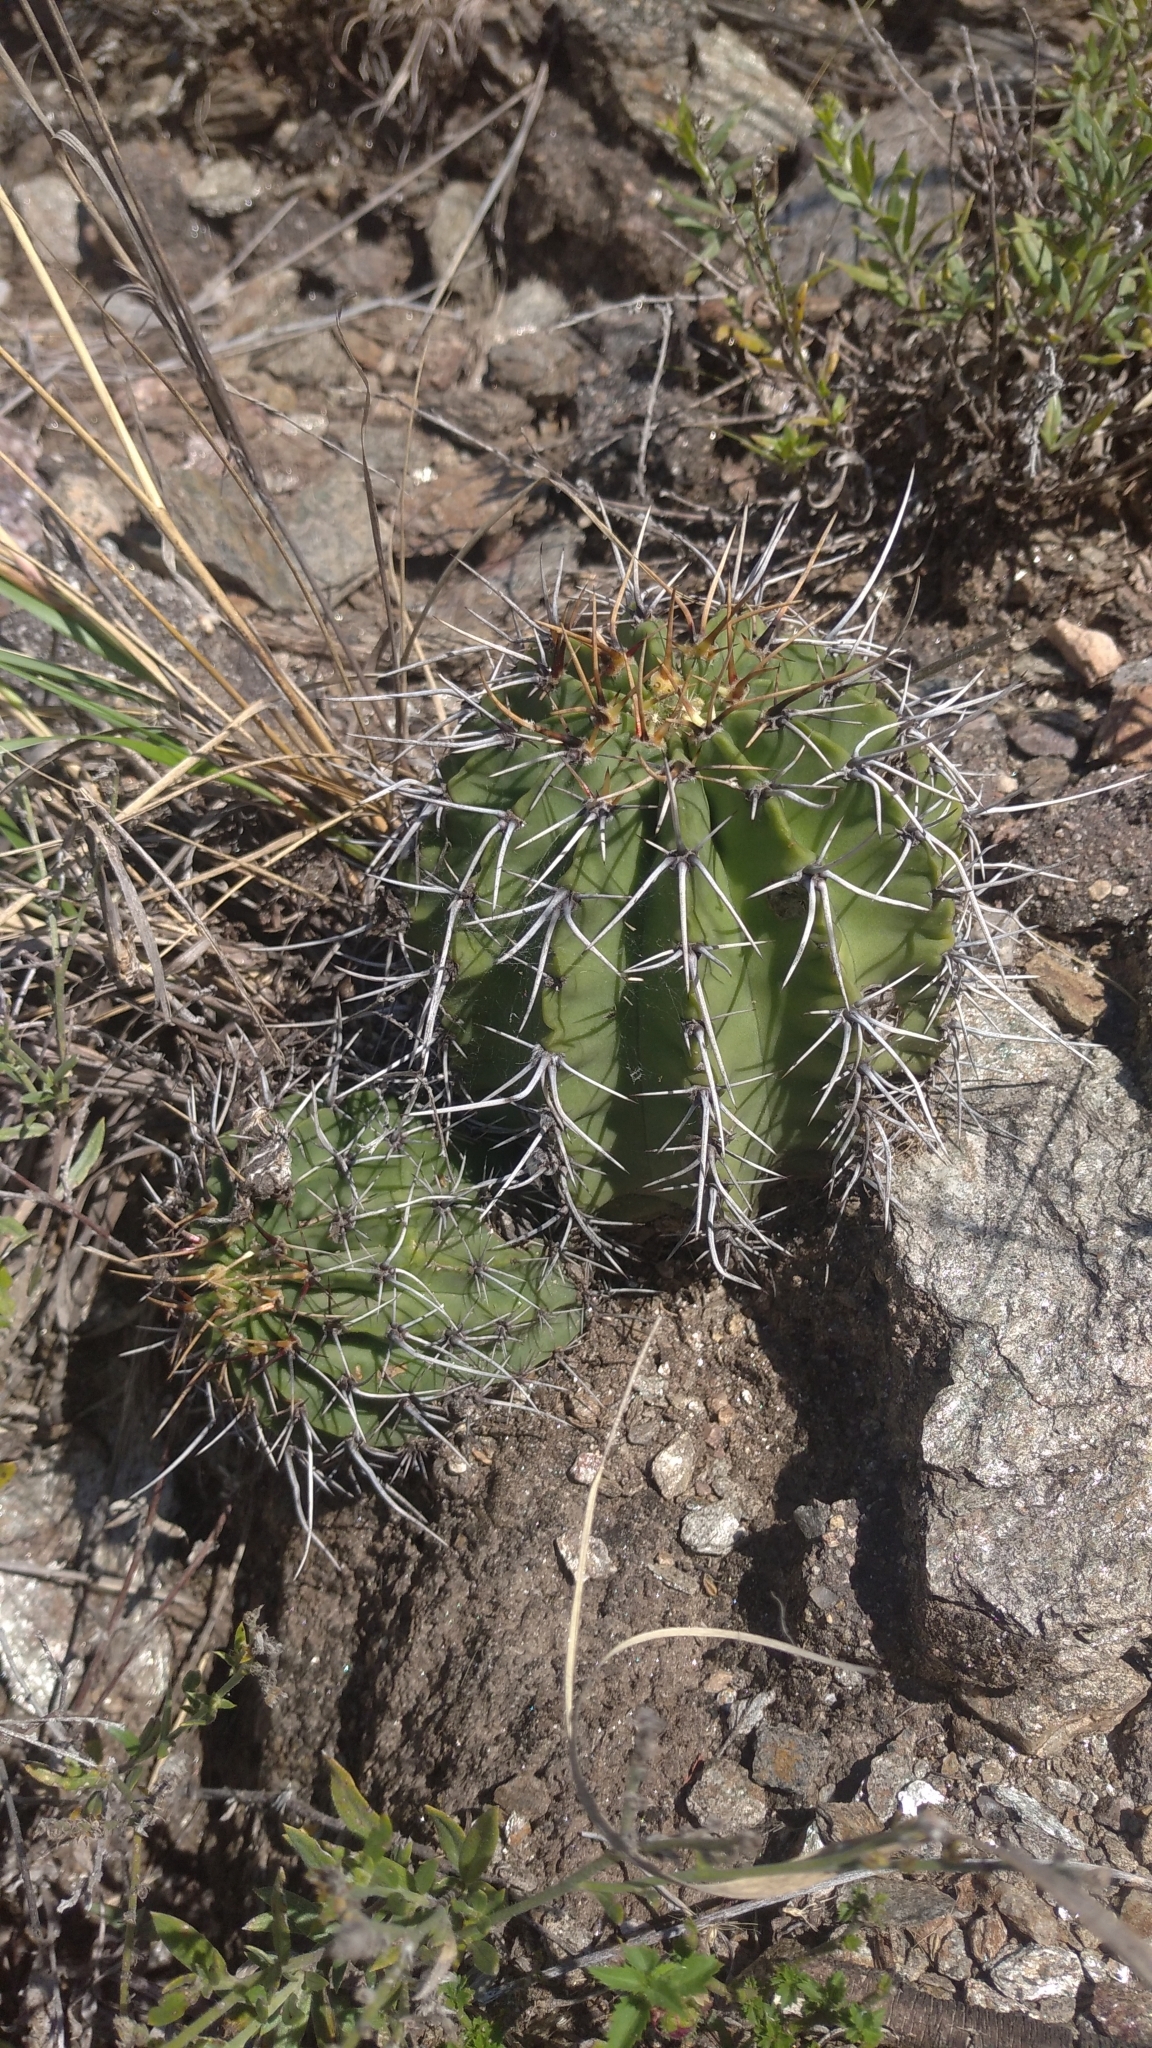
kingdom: Plantae
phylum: Tracheophyta
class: Magnoliopsida
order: Caryophyllales
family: Cactaceae
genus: Echinopsis
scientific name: Echinopsis aurea
